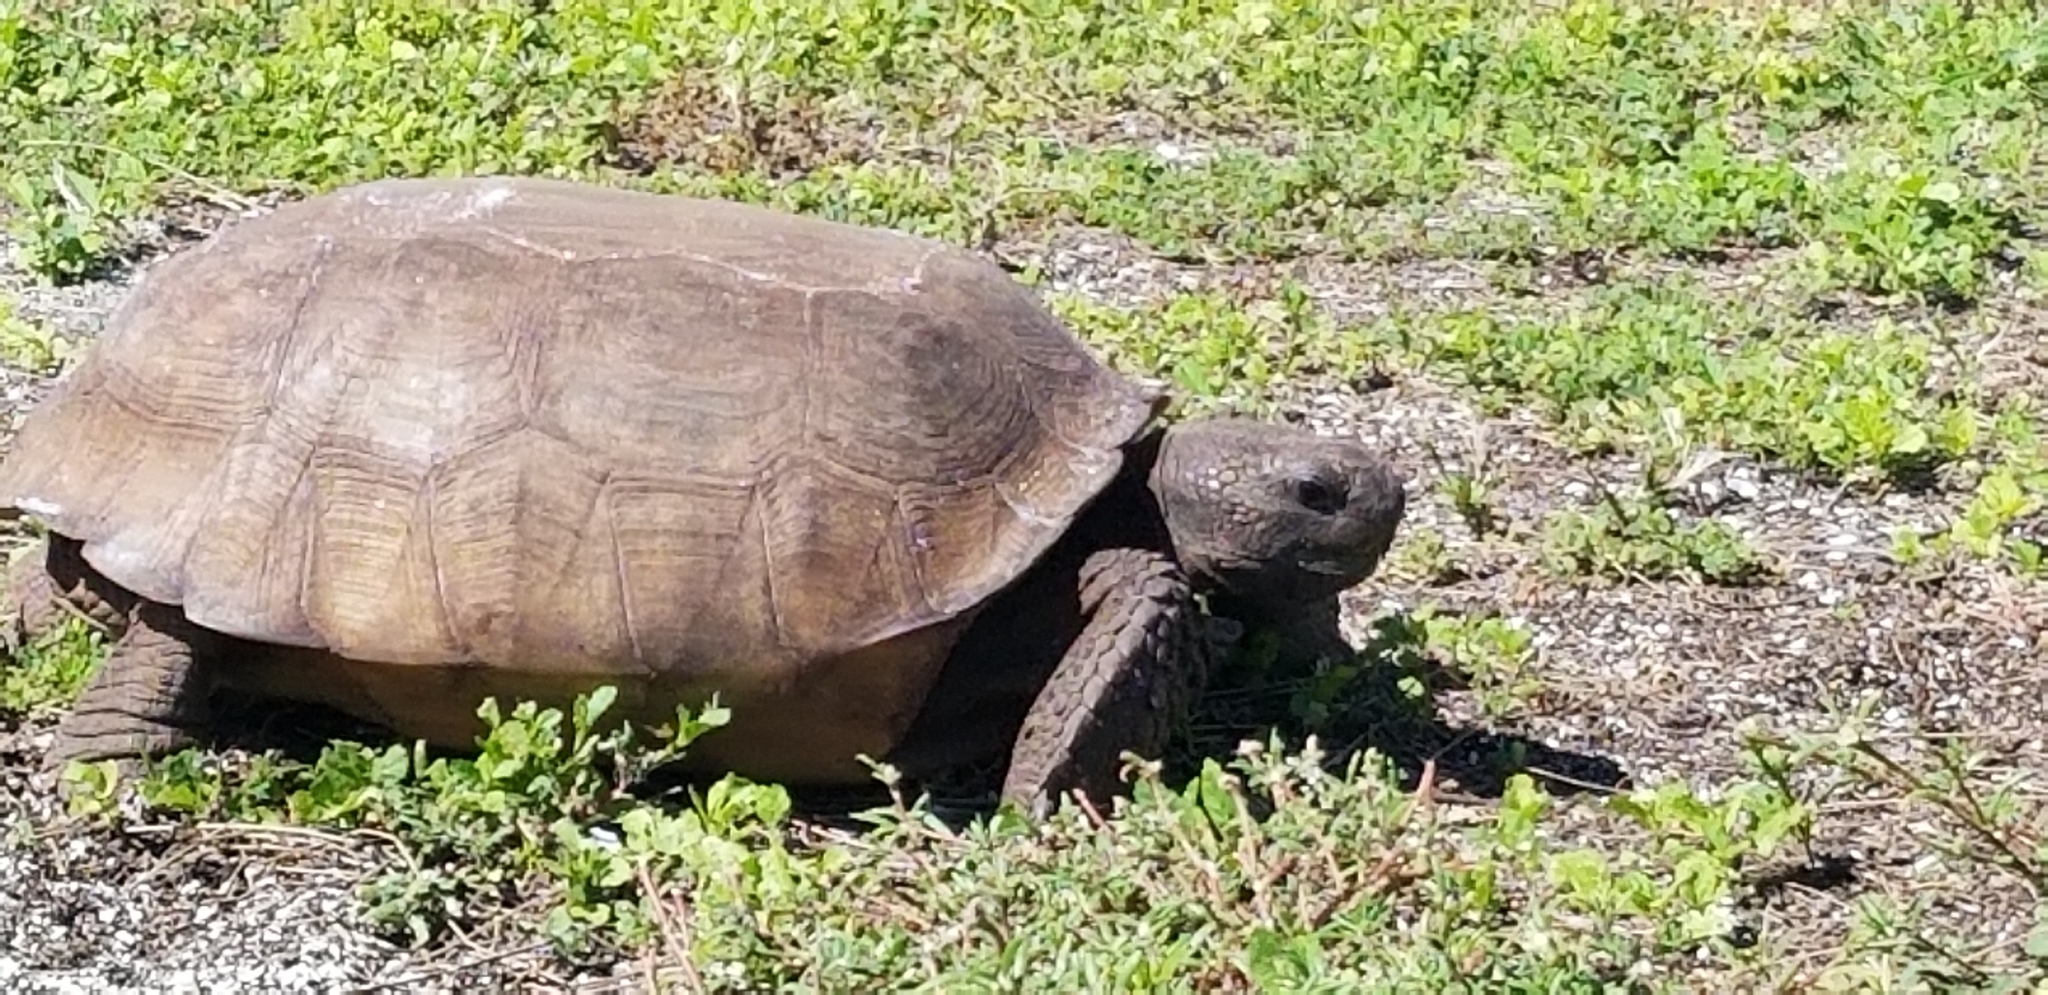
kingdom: Animalia
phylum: Chordata
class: Testudines
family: Testudinidae
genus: Gopherus
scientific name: Gopherus polyphemus
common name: Florida gopher tortoise
